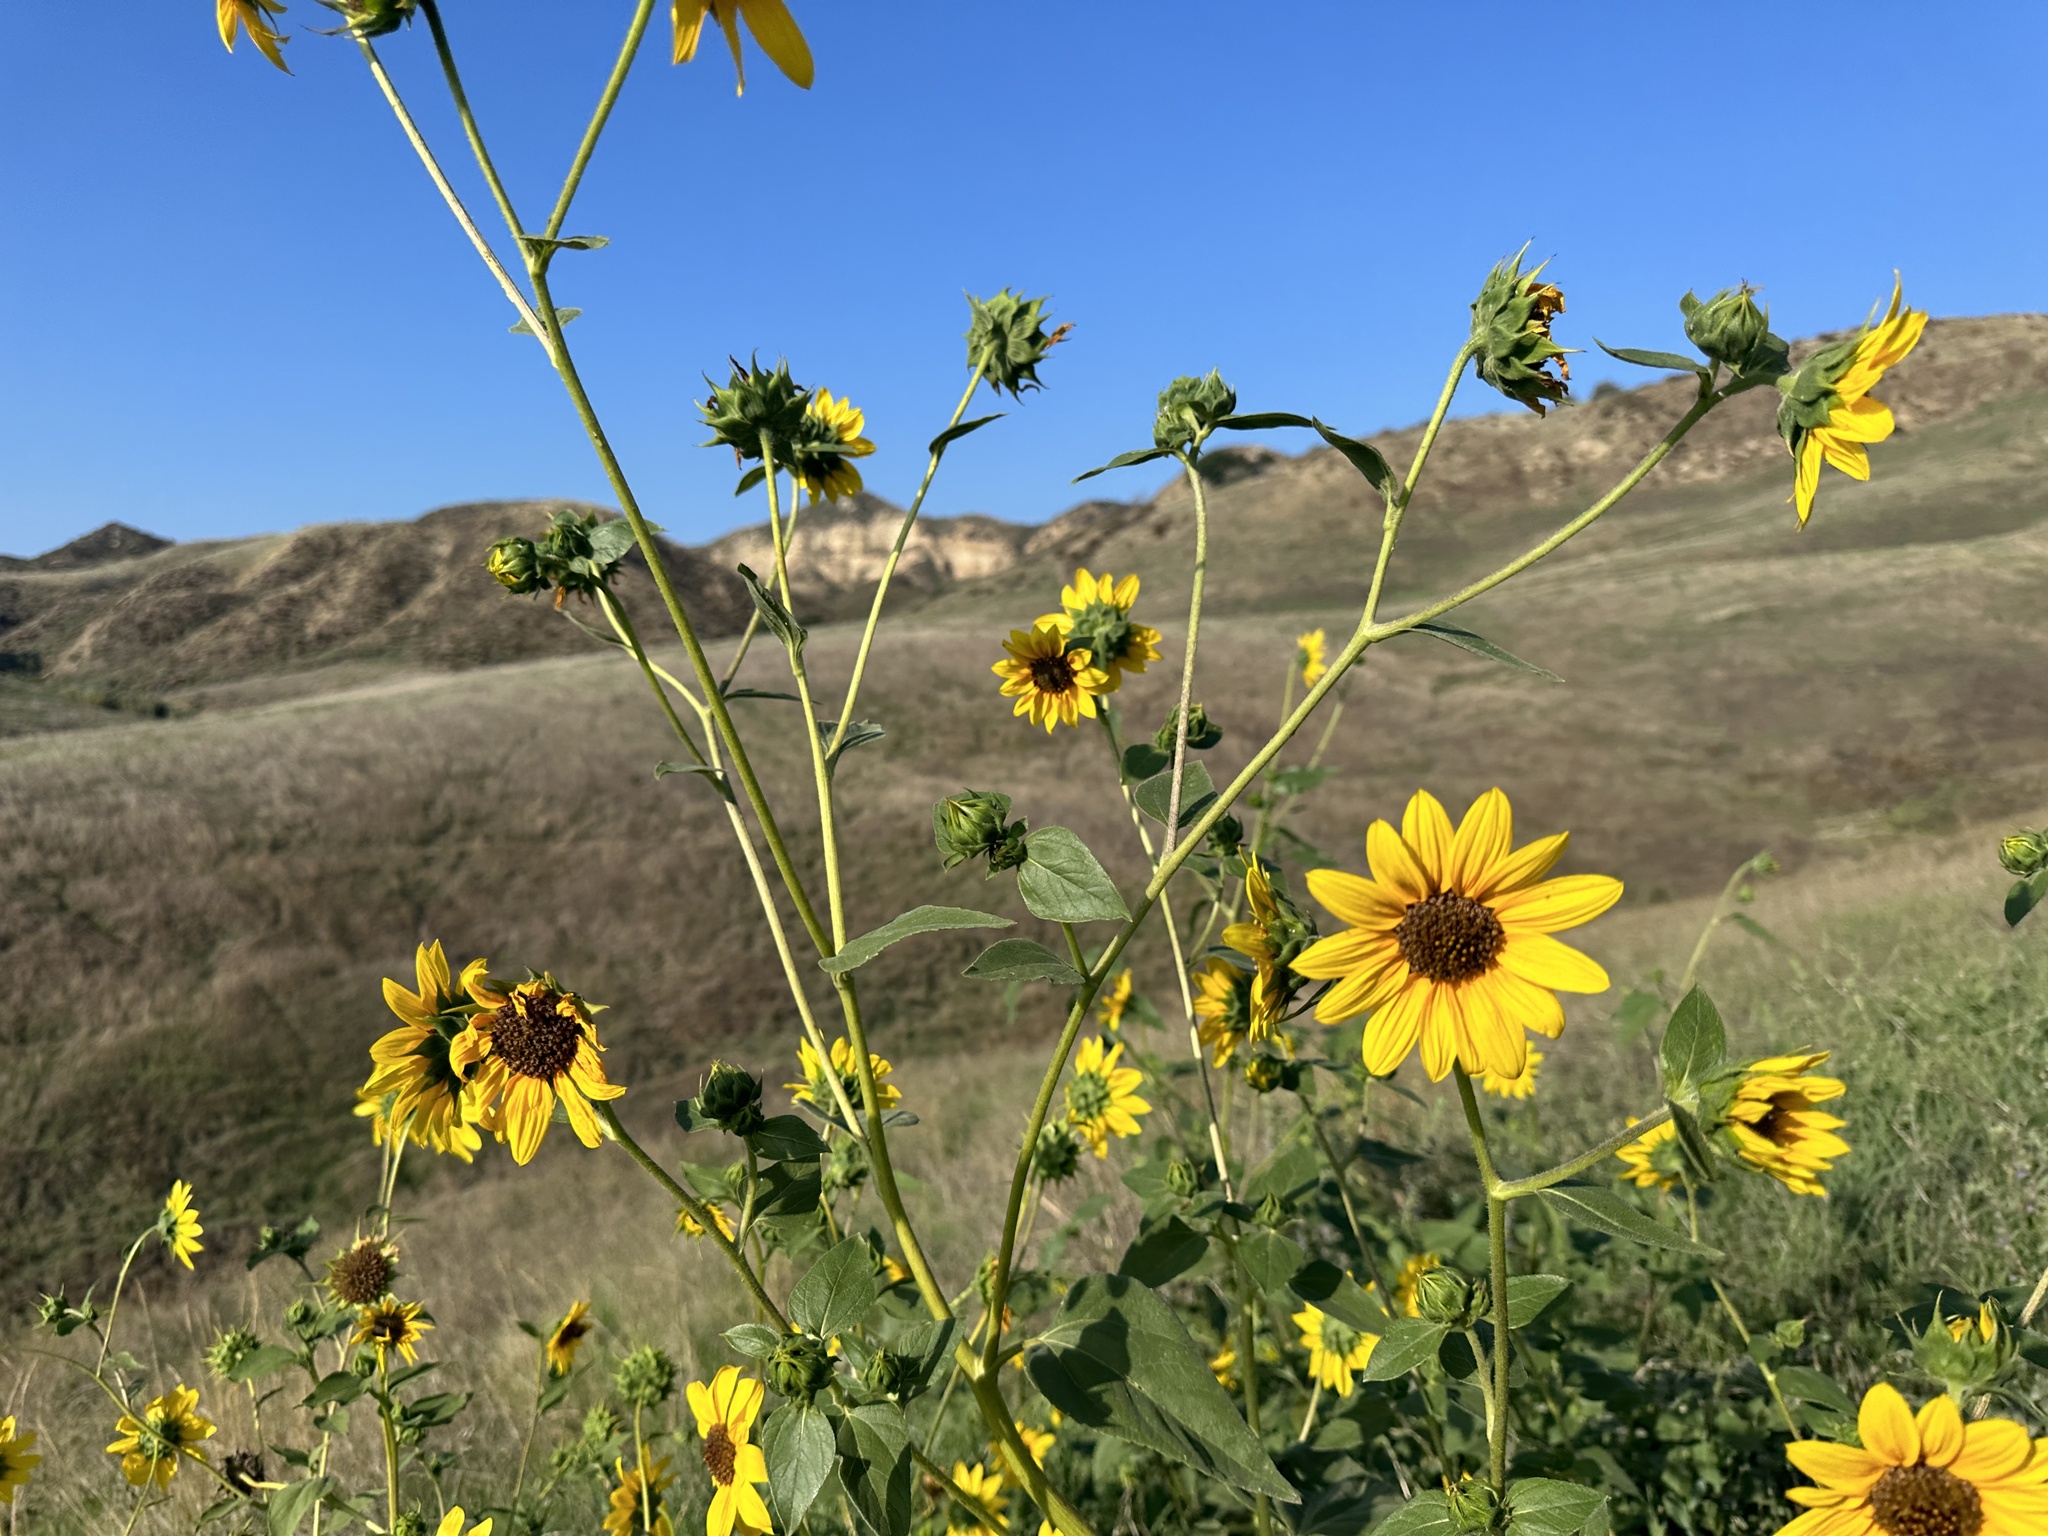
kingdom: Plantae
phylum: Tracheophyta
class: Magnoliopsida
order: Asterales
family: Asteraceae
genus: Helianthus
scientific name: Helianthus petiolaris
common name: Lesser sunflower
